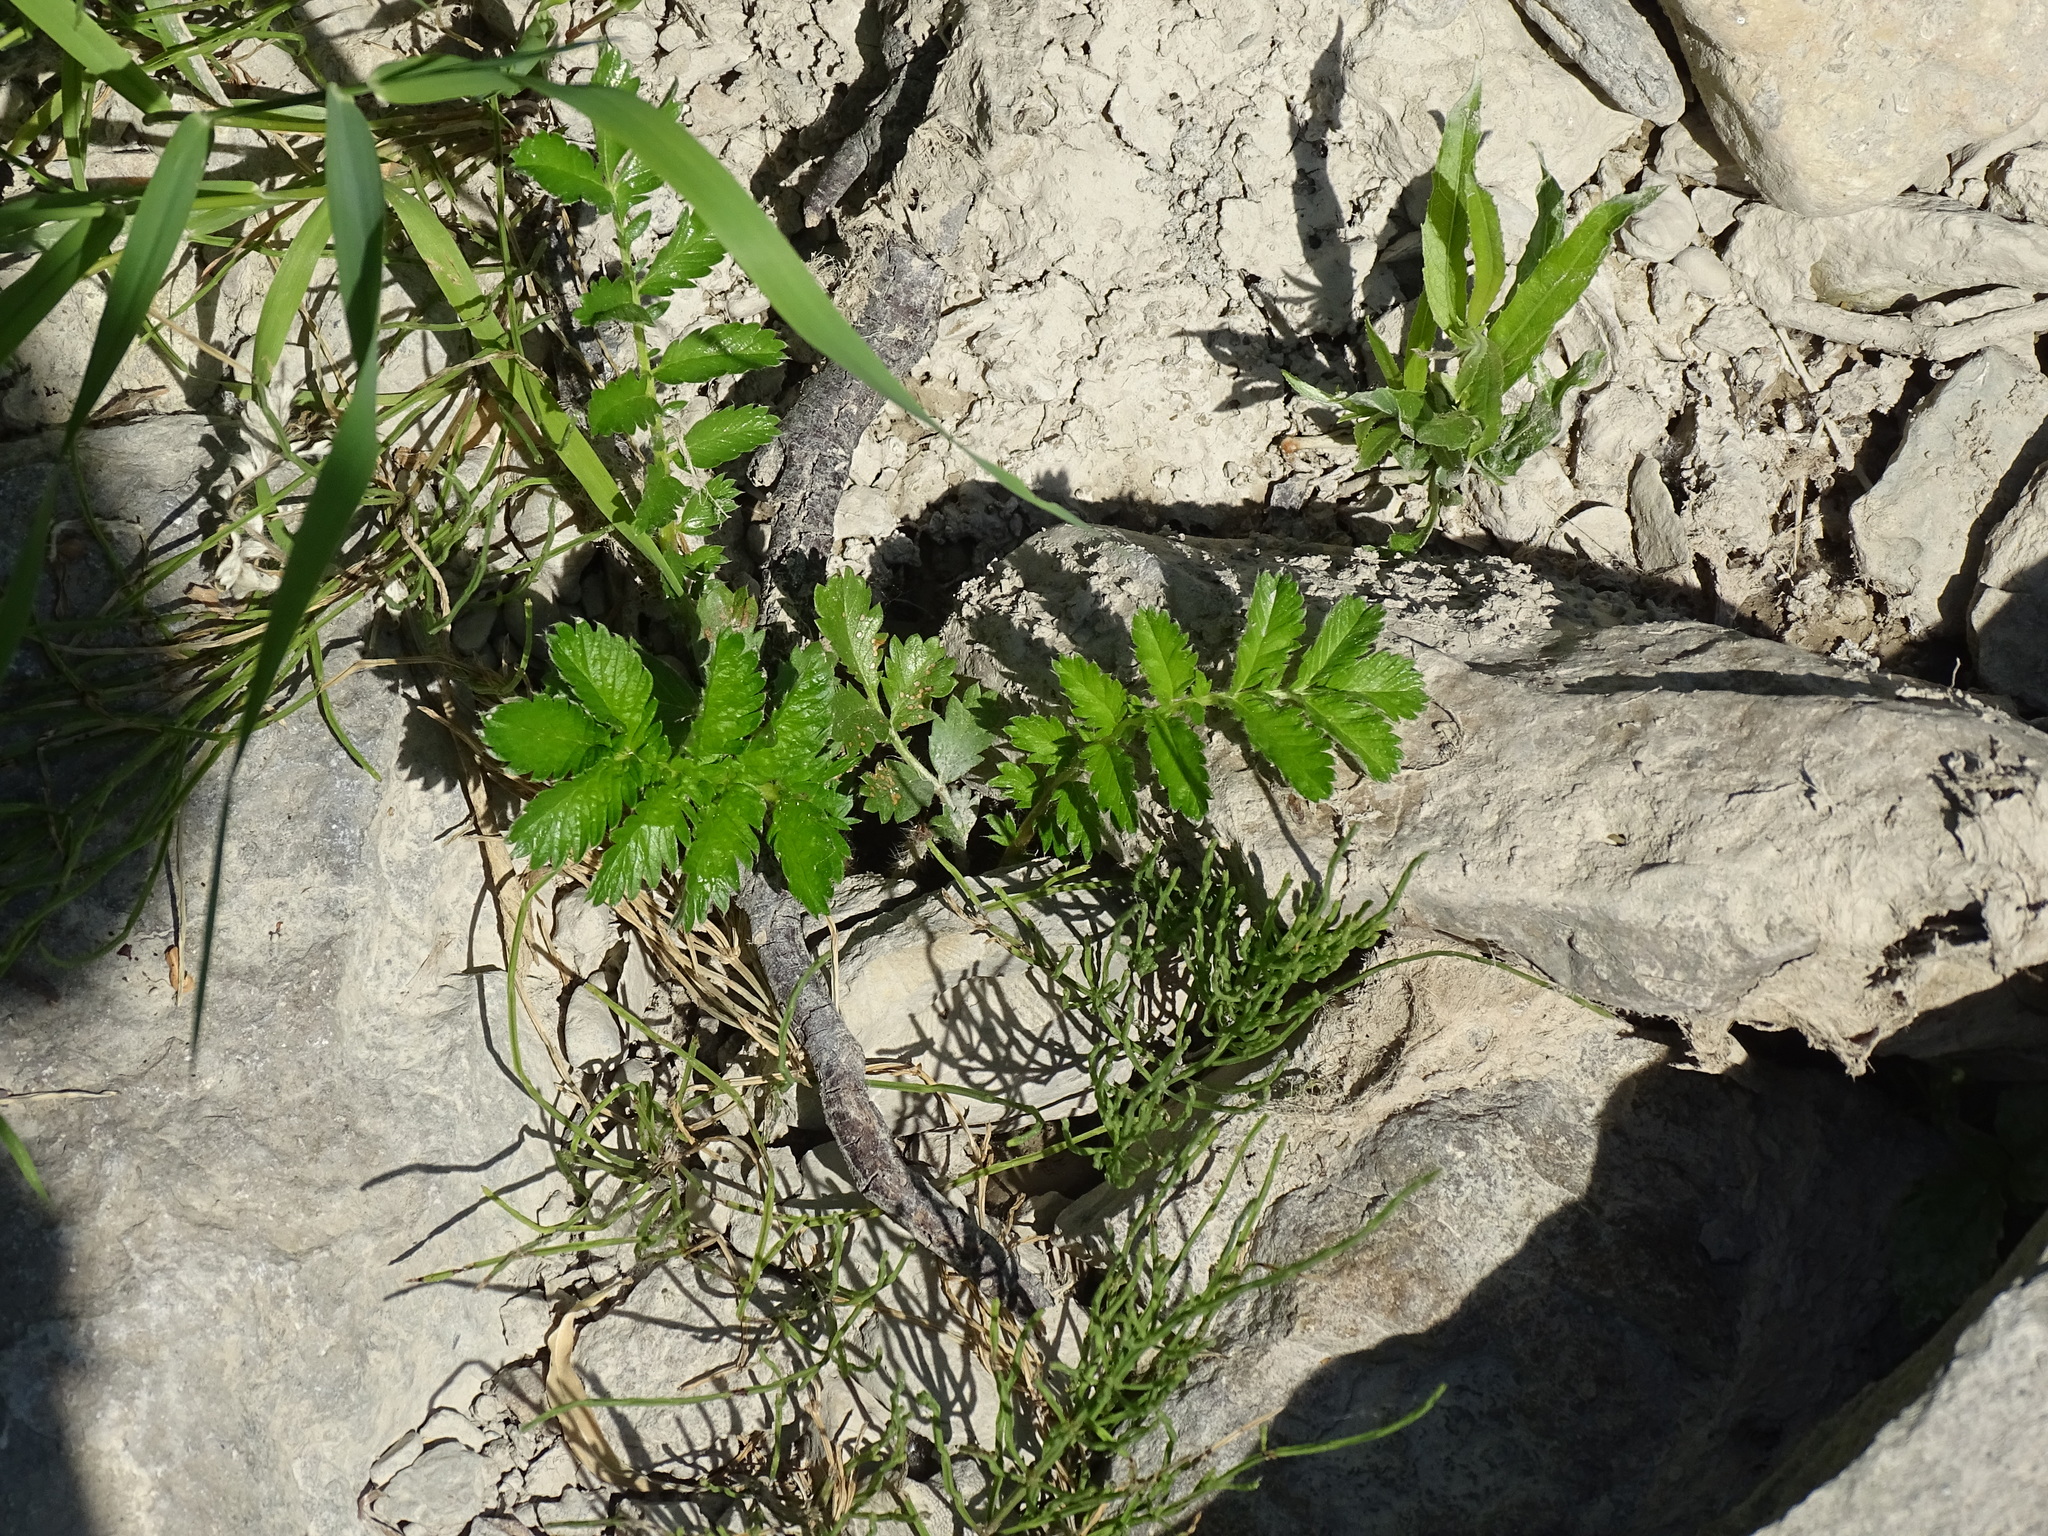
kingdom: Plantae
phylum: Tracheophyta
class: Magnoliopsida
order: Rosales
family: Rosaceae
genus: Argentina
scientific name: Argentina anserina
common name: Common silverweed
